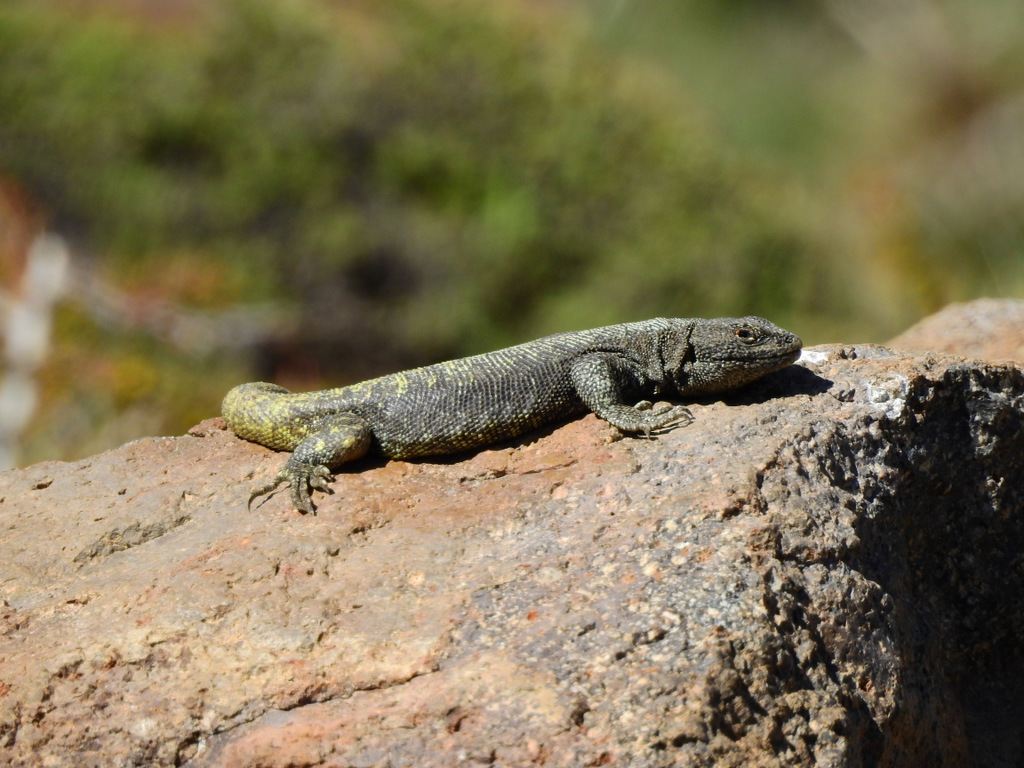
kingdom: Animalia
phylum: Chordata
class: Squamata
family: Liolaemidae
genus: Liolaemus
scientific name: Liolaemus flavipiceus
